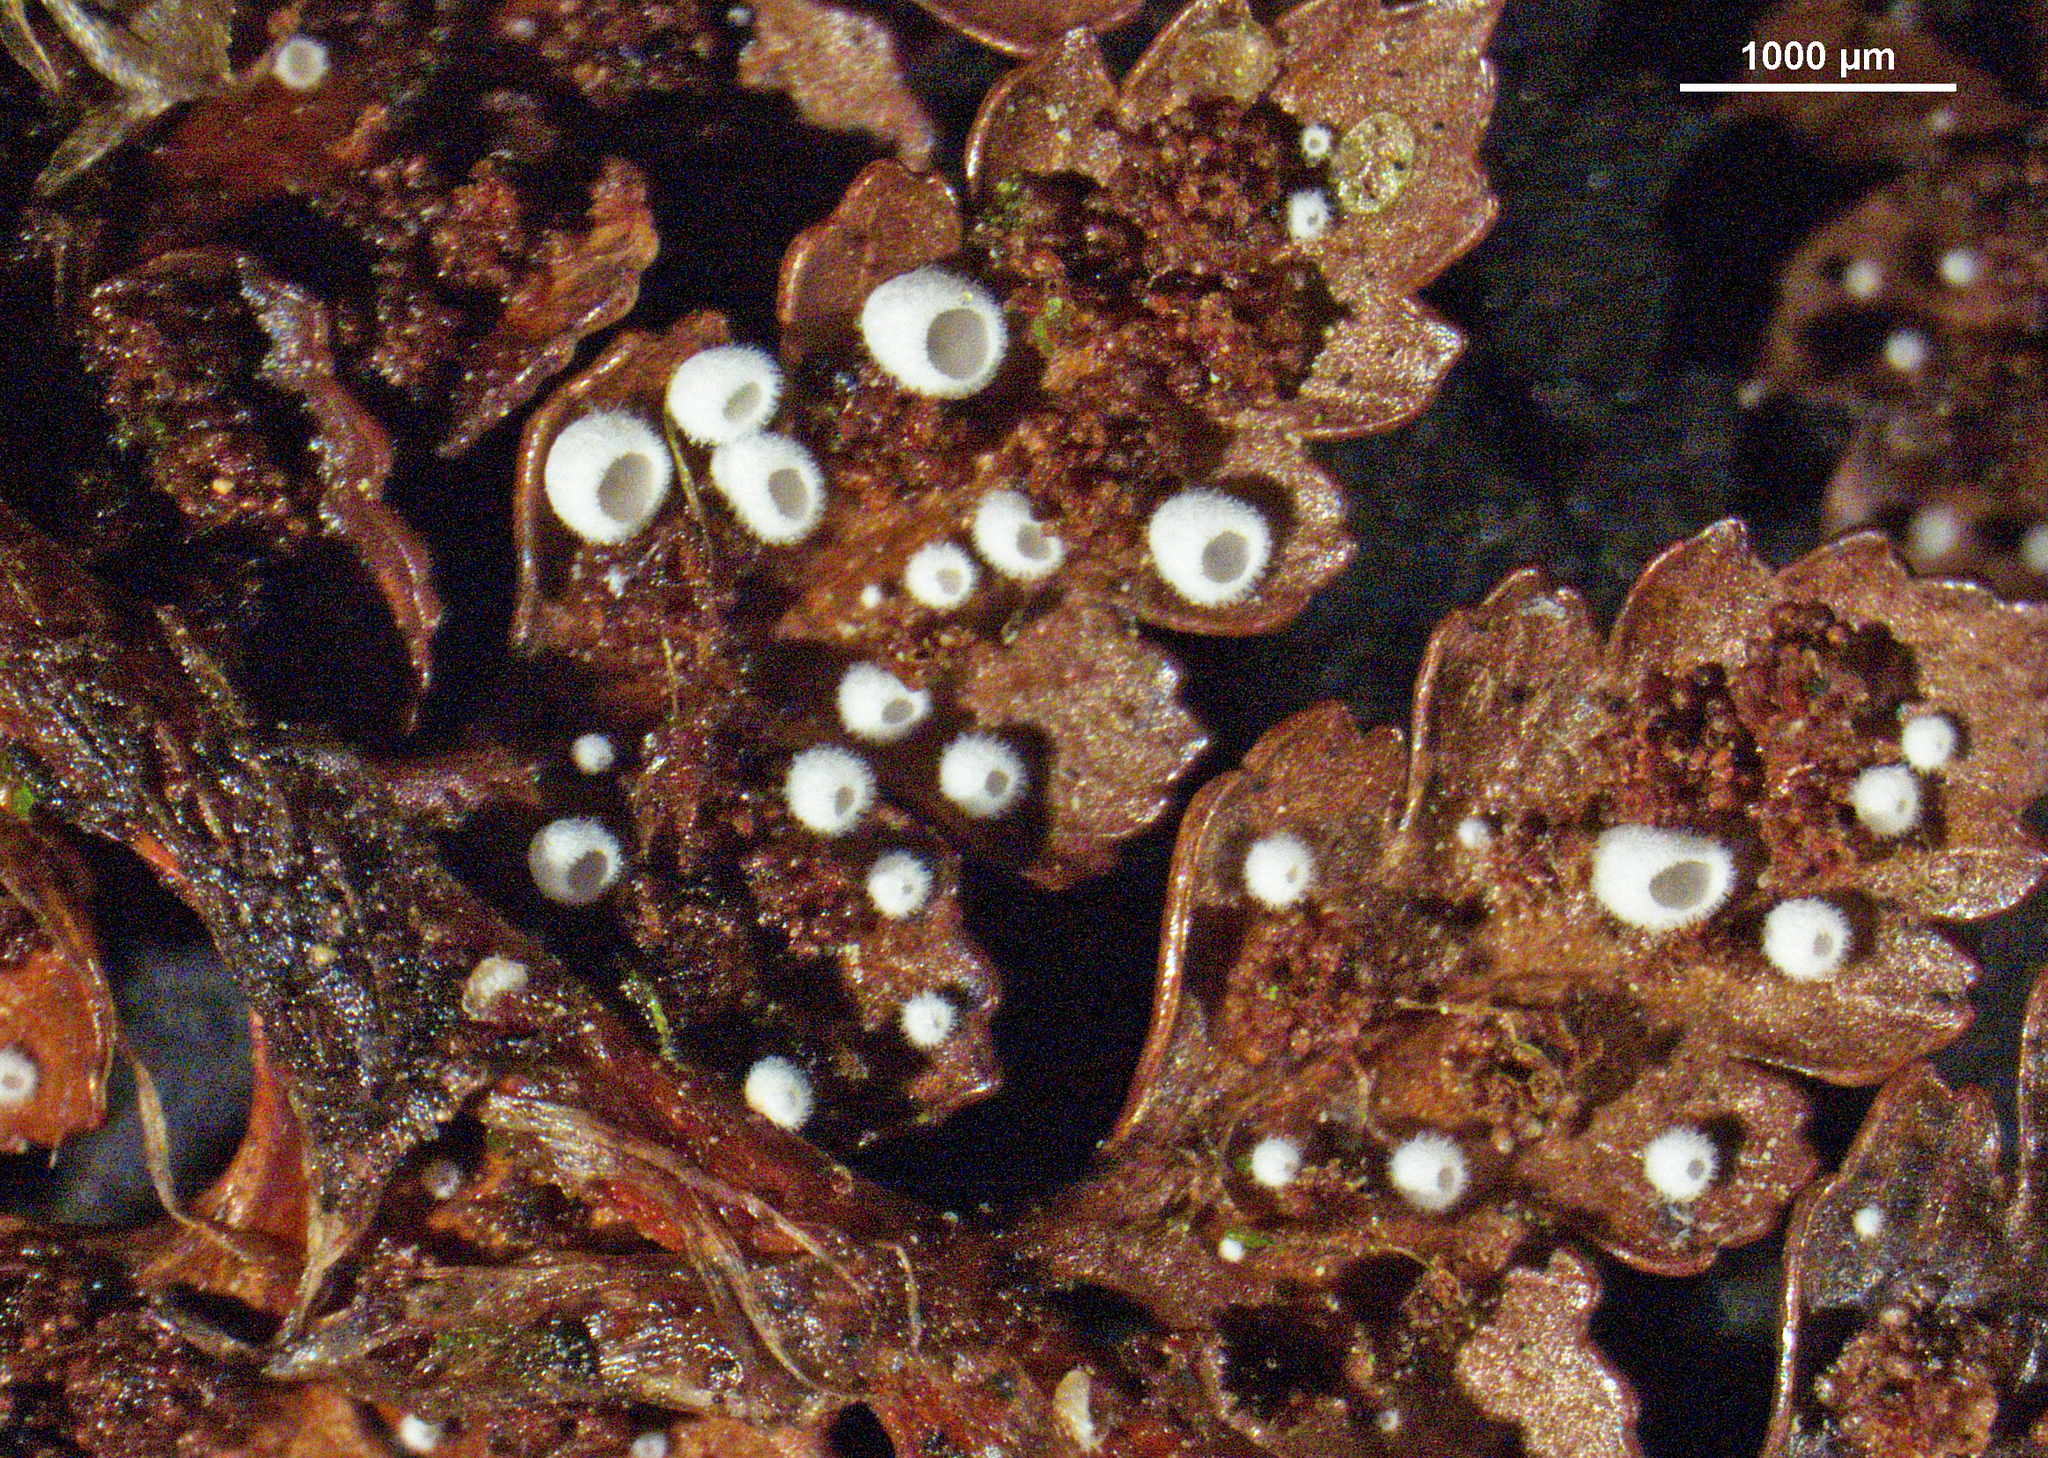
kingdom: Fungi
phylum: Basidiomycota
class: Agaricomycetes
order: Agaricales
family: Niaceae
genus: Flagelloscypha
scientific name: Flagelloscypha austrofilicis
